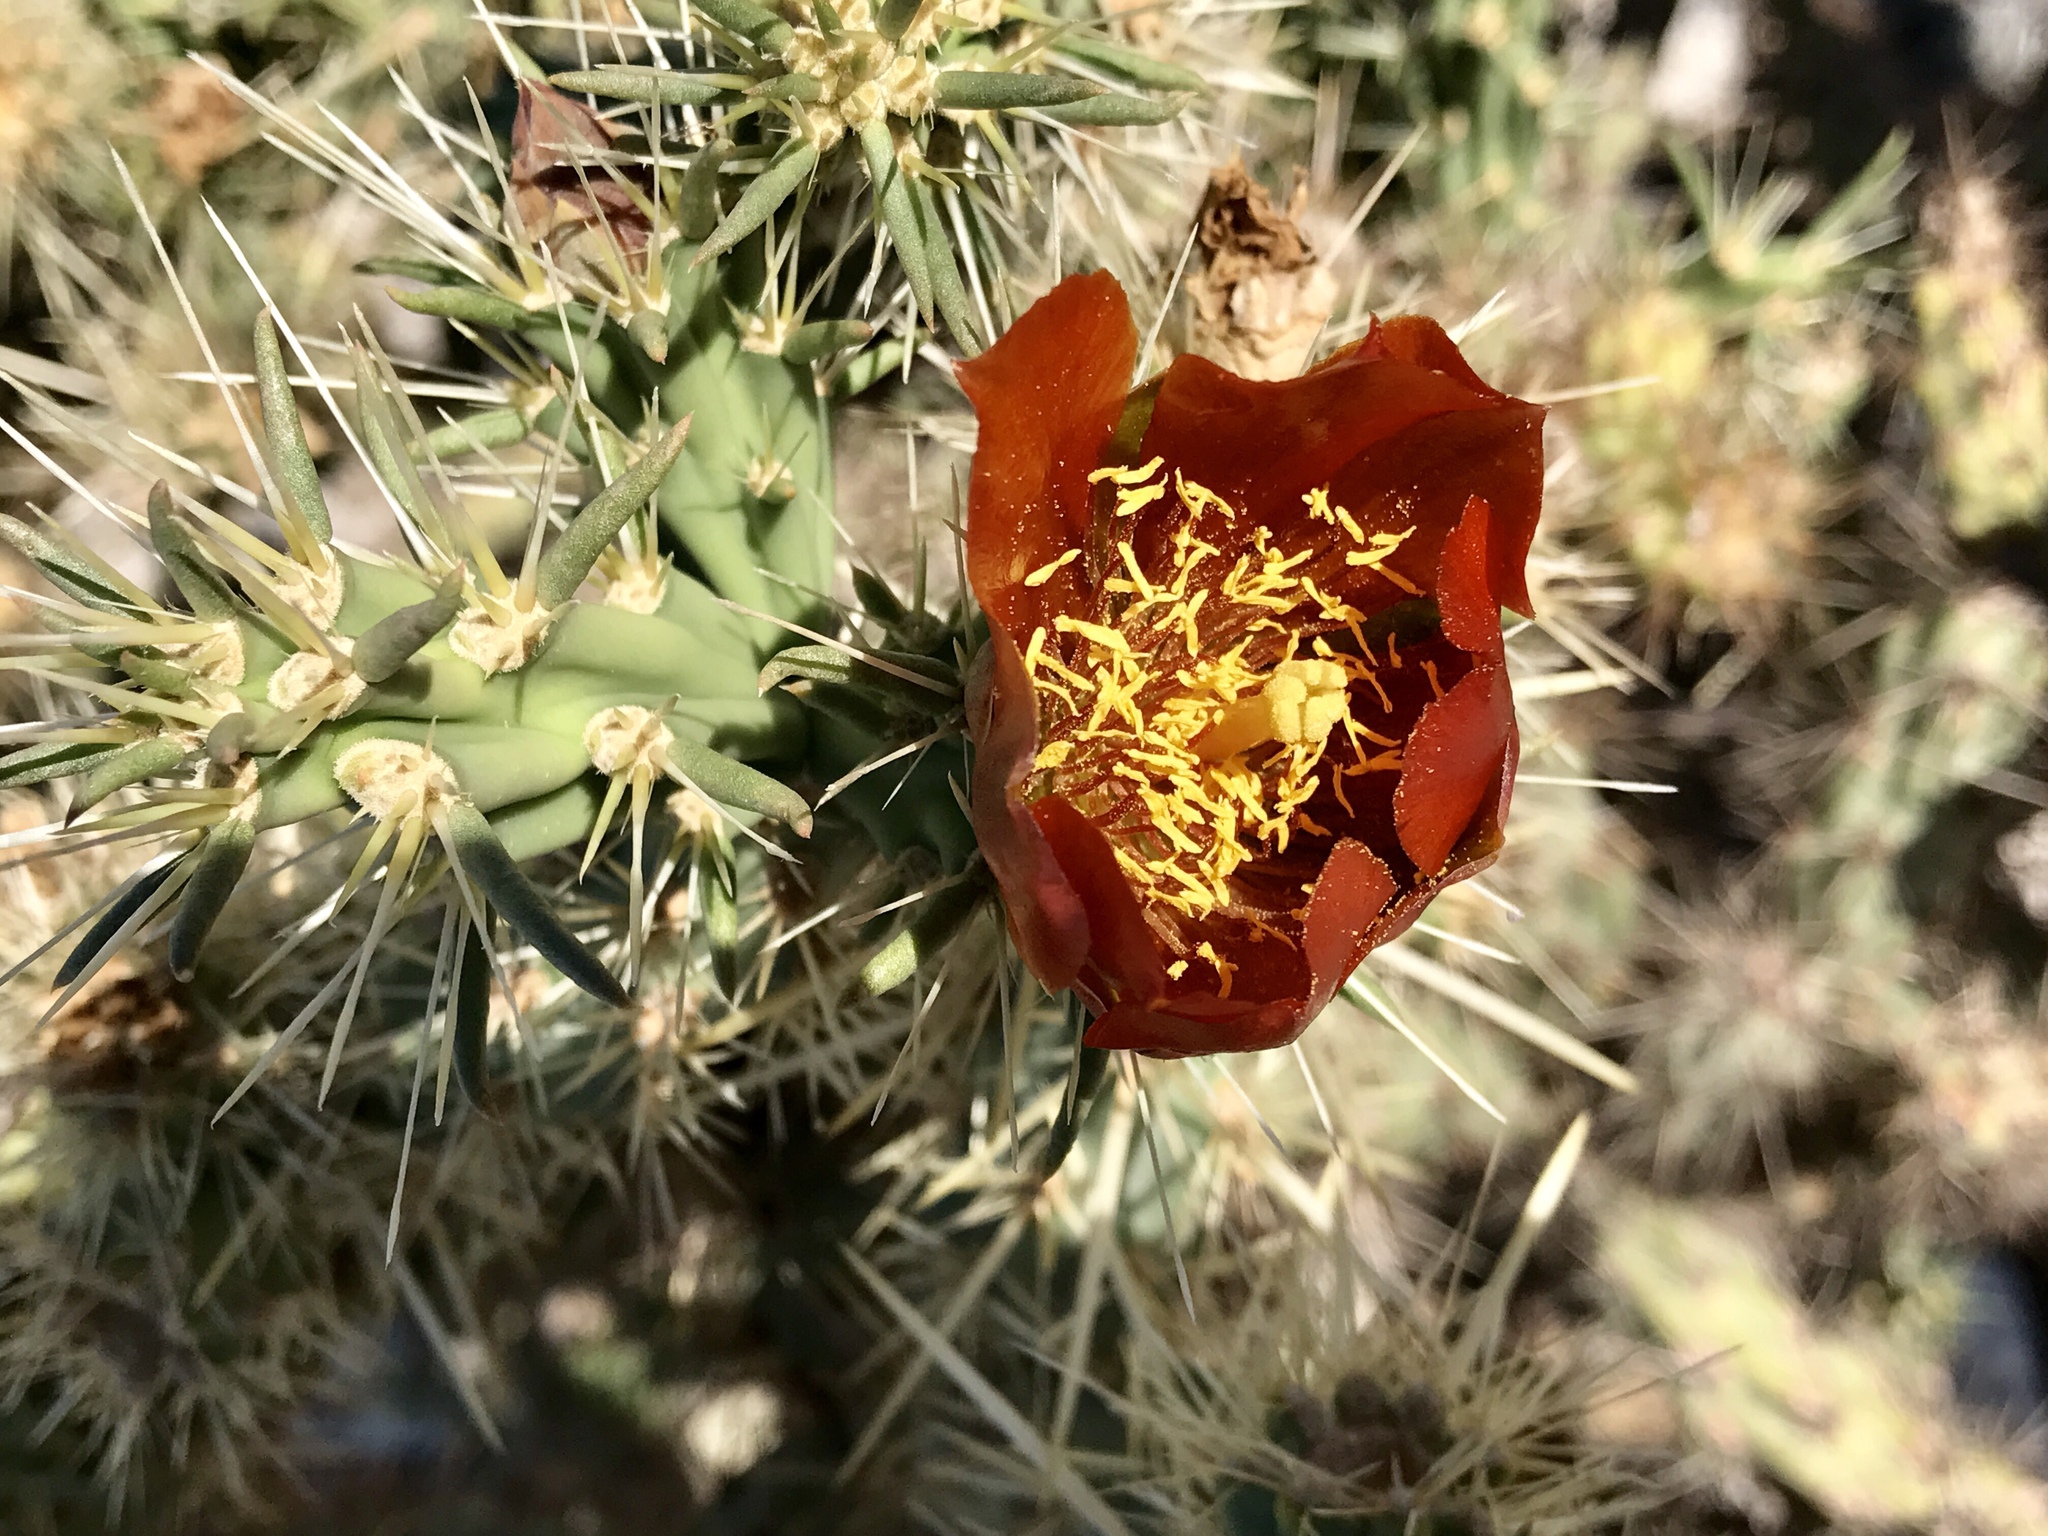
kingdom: Plantae
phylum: Tracheophyta
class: Magnoliopsida
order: Caryophyllales
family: Cactaceae
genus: Cylindropuntia
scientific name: Cylindropuntia acanthocarpa
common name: Buckhorn cholla
